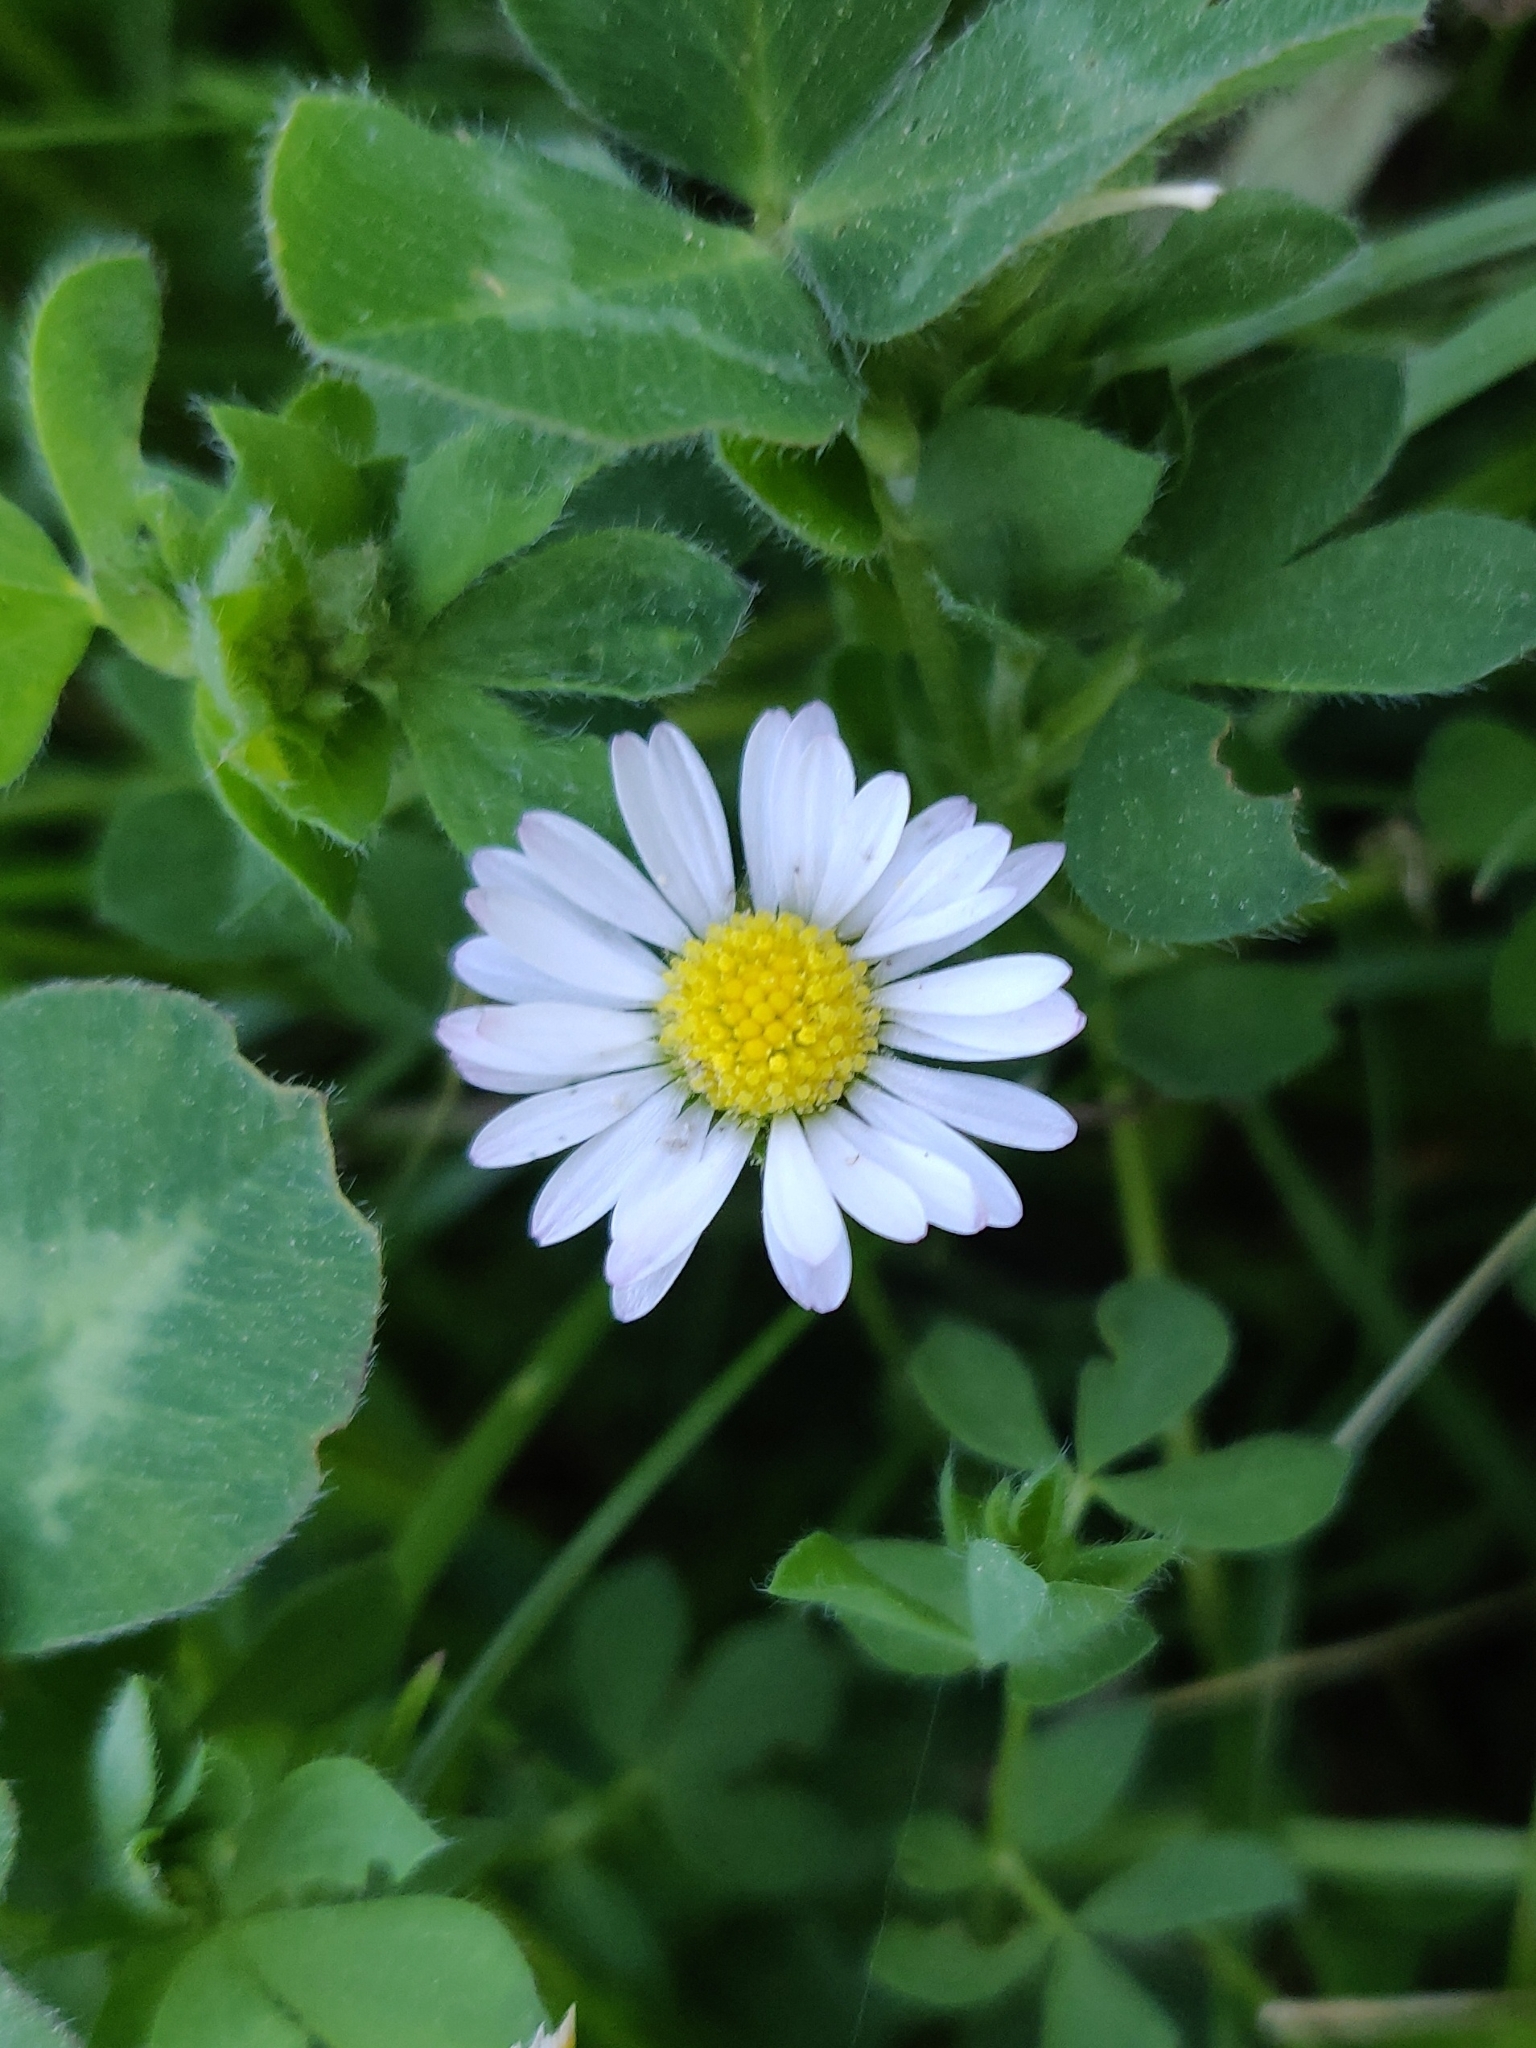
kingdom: Plantae
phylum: Tracheophyta
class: Magnoliopsida
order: Asterales
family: Asteraceae
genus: Bellis
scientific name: Bellis perennis
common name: Lawndaisy
